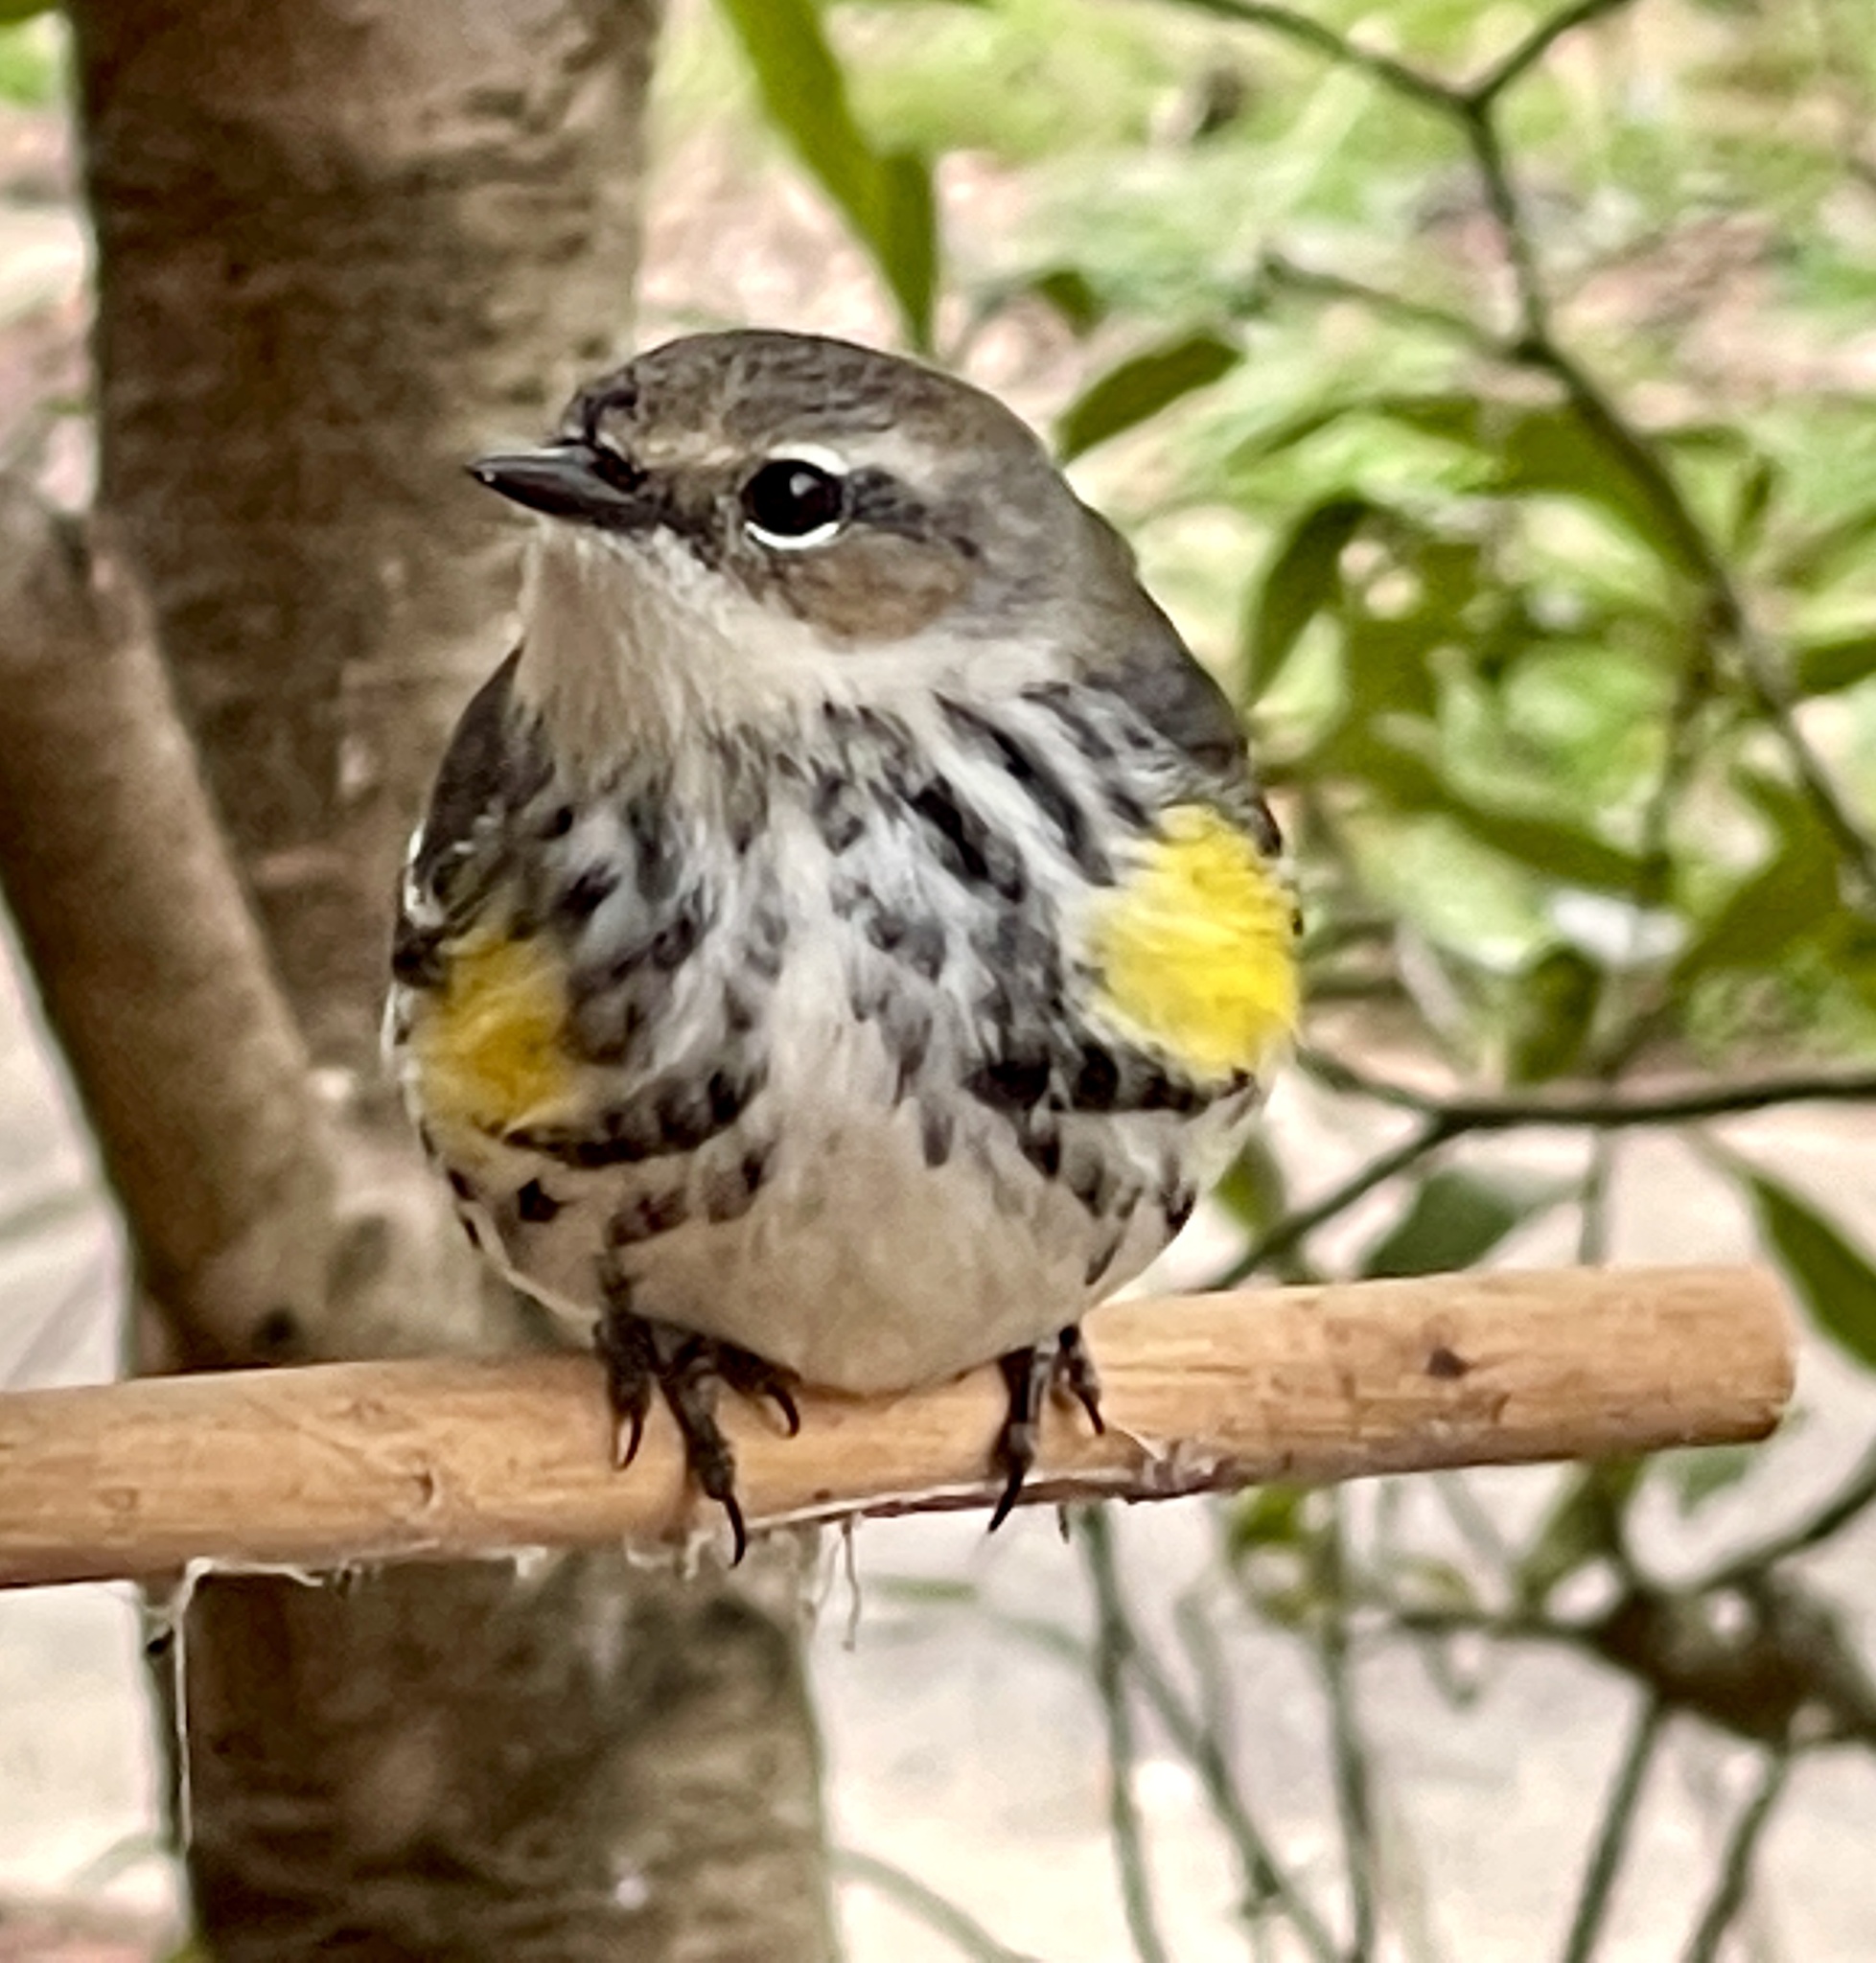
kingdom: Animalia
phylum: Chordata
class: Aves
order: Passeriformes
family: Parulidae
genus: Setophaga
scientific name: Setophaga coronata
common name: Myrtle warbler
